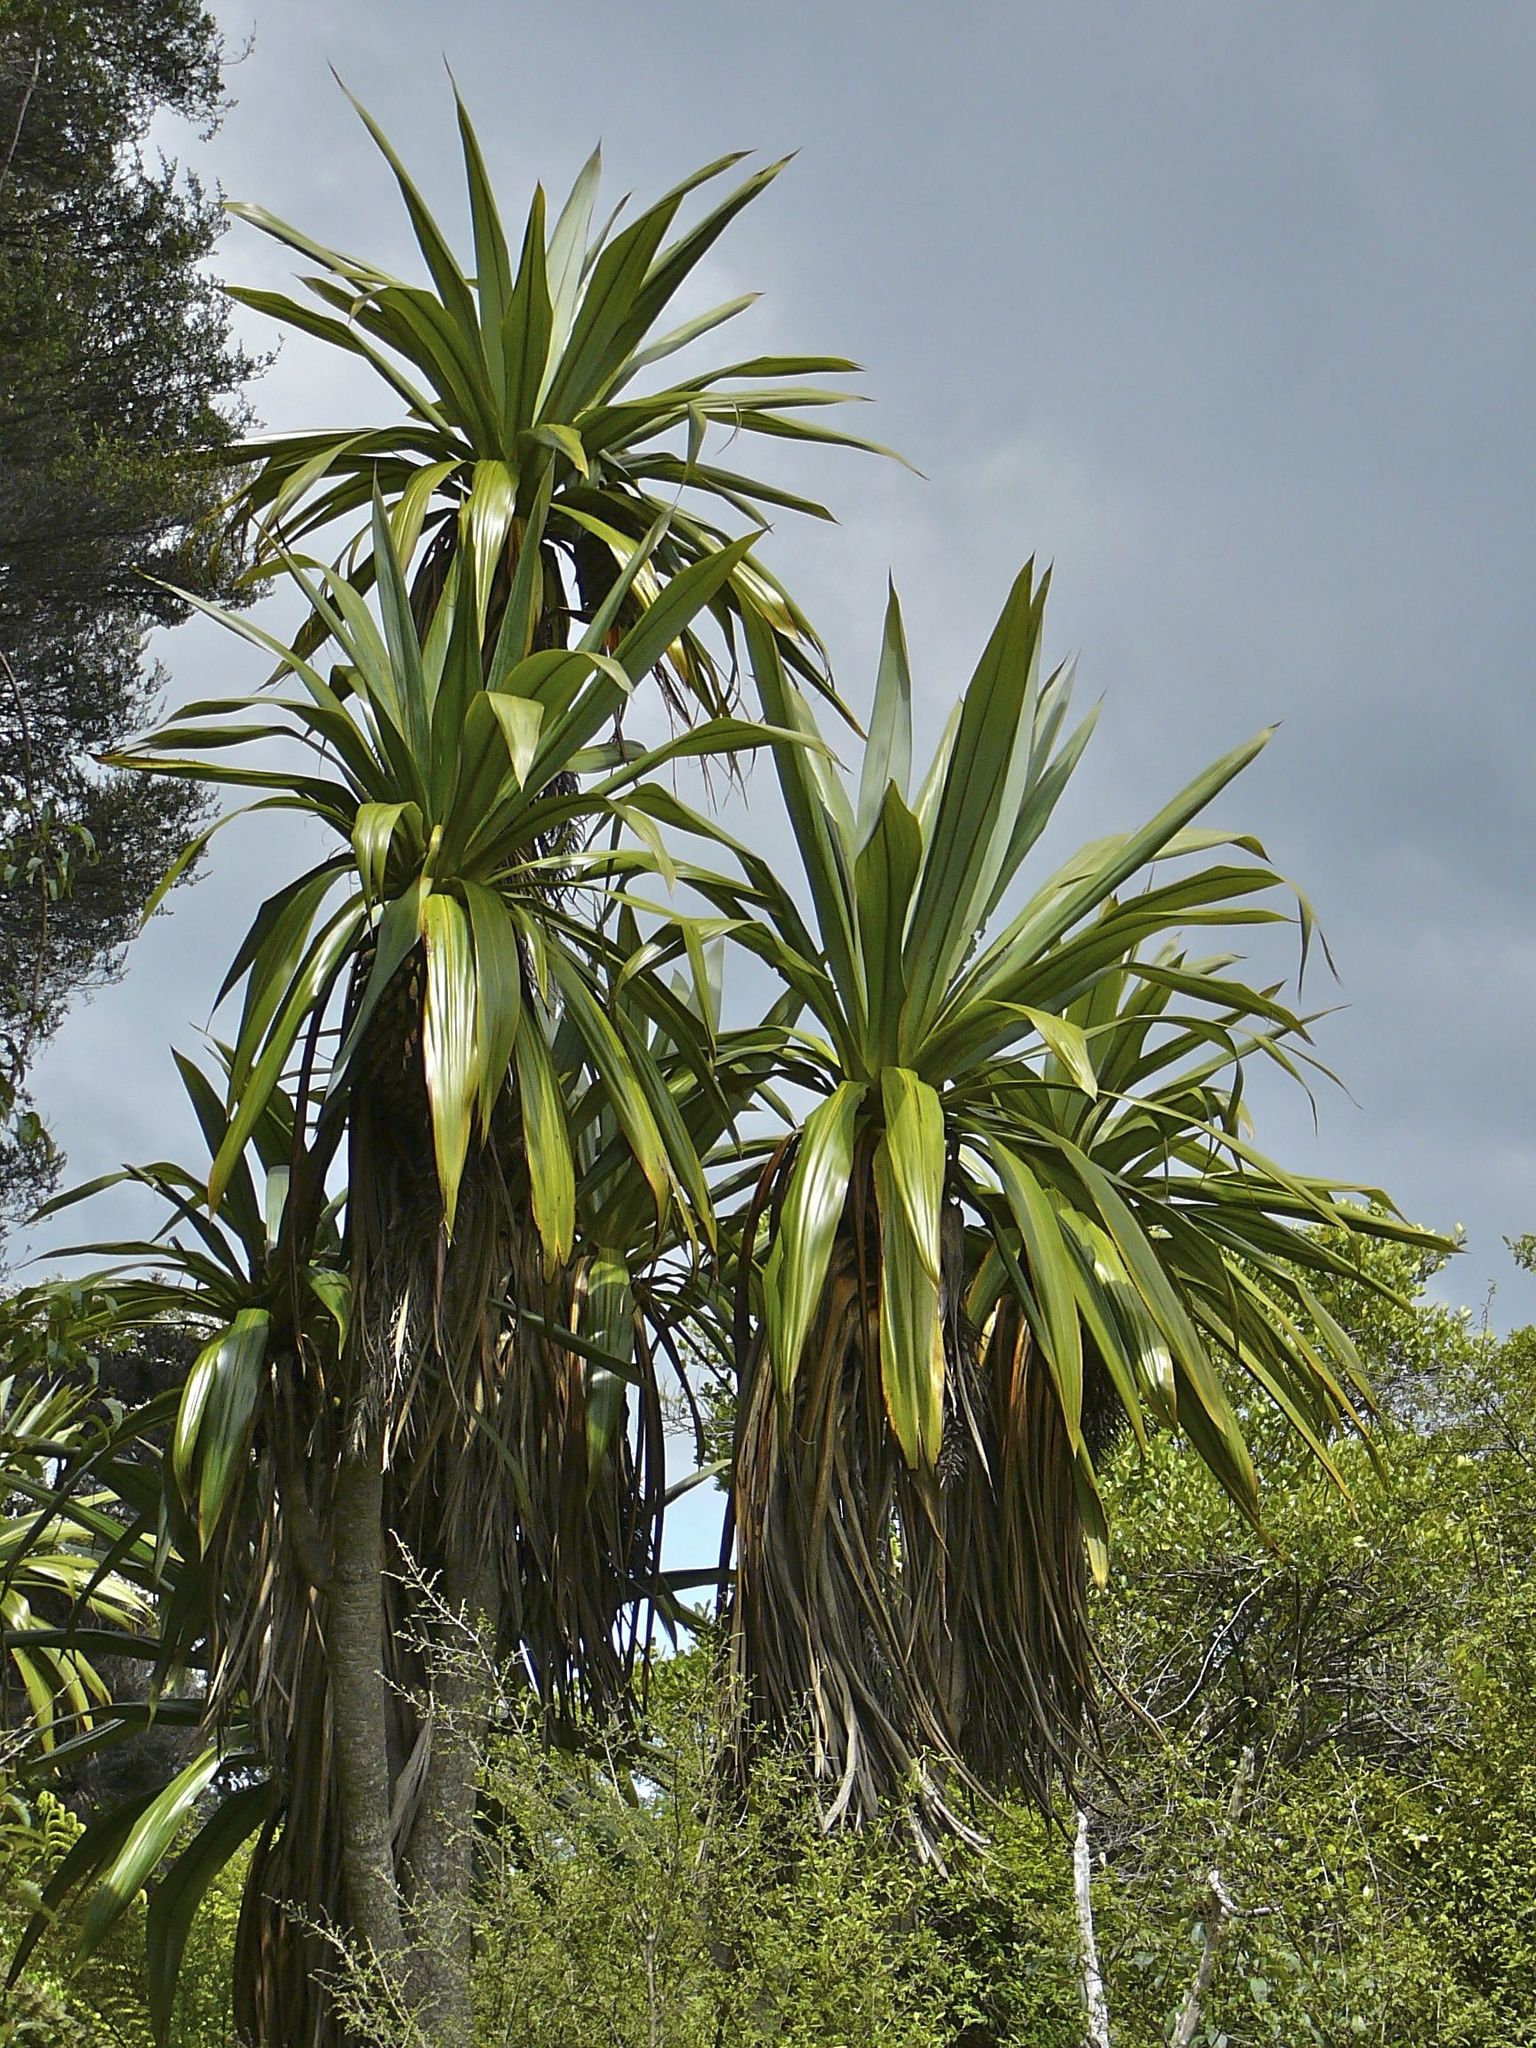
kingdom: Plantae
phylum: Tracheophyta
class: Liliopsida
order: Asparagales
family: Asparagaceae
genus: Cordyline
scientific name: Cordyline indivisa
